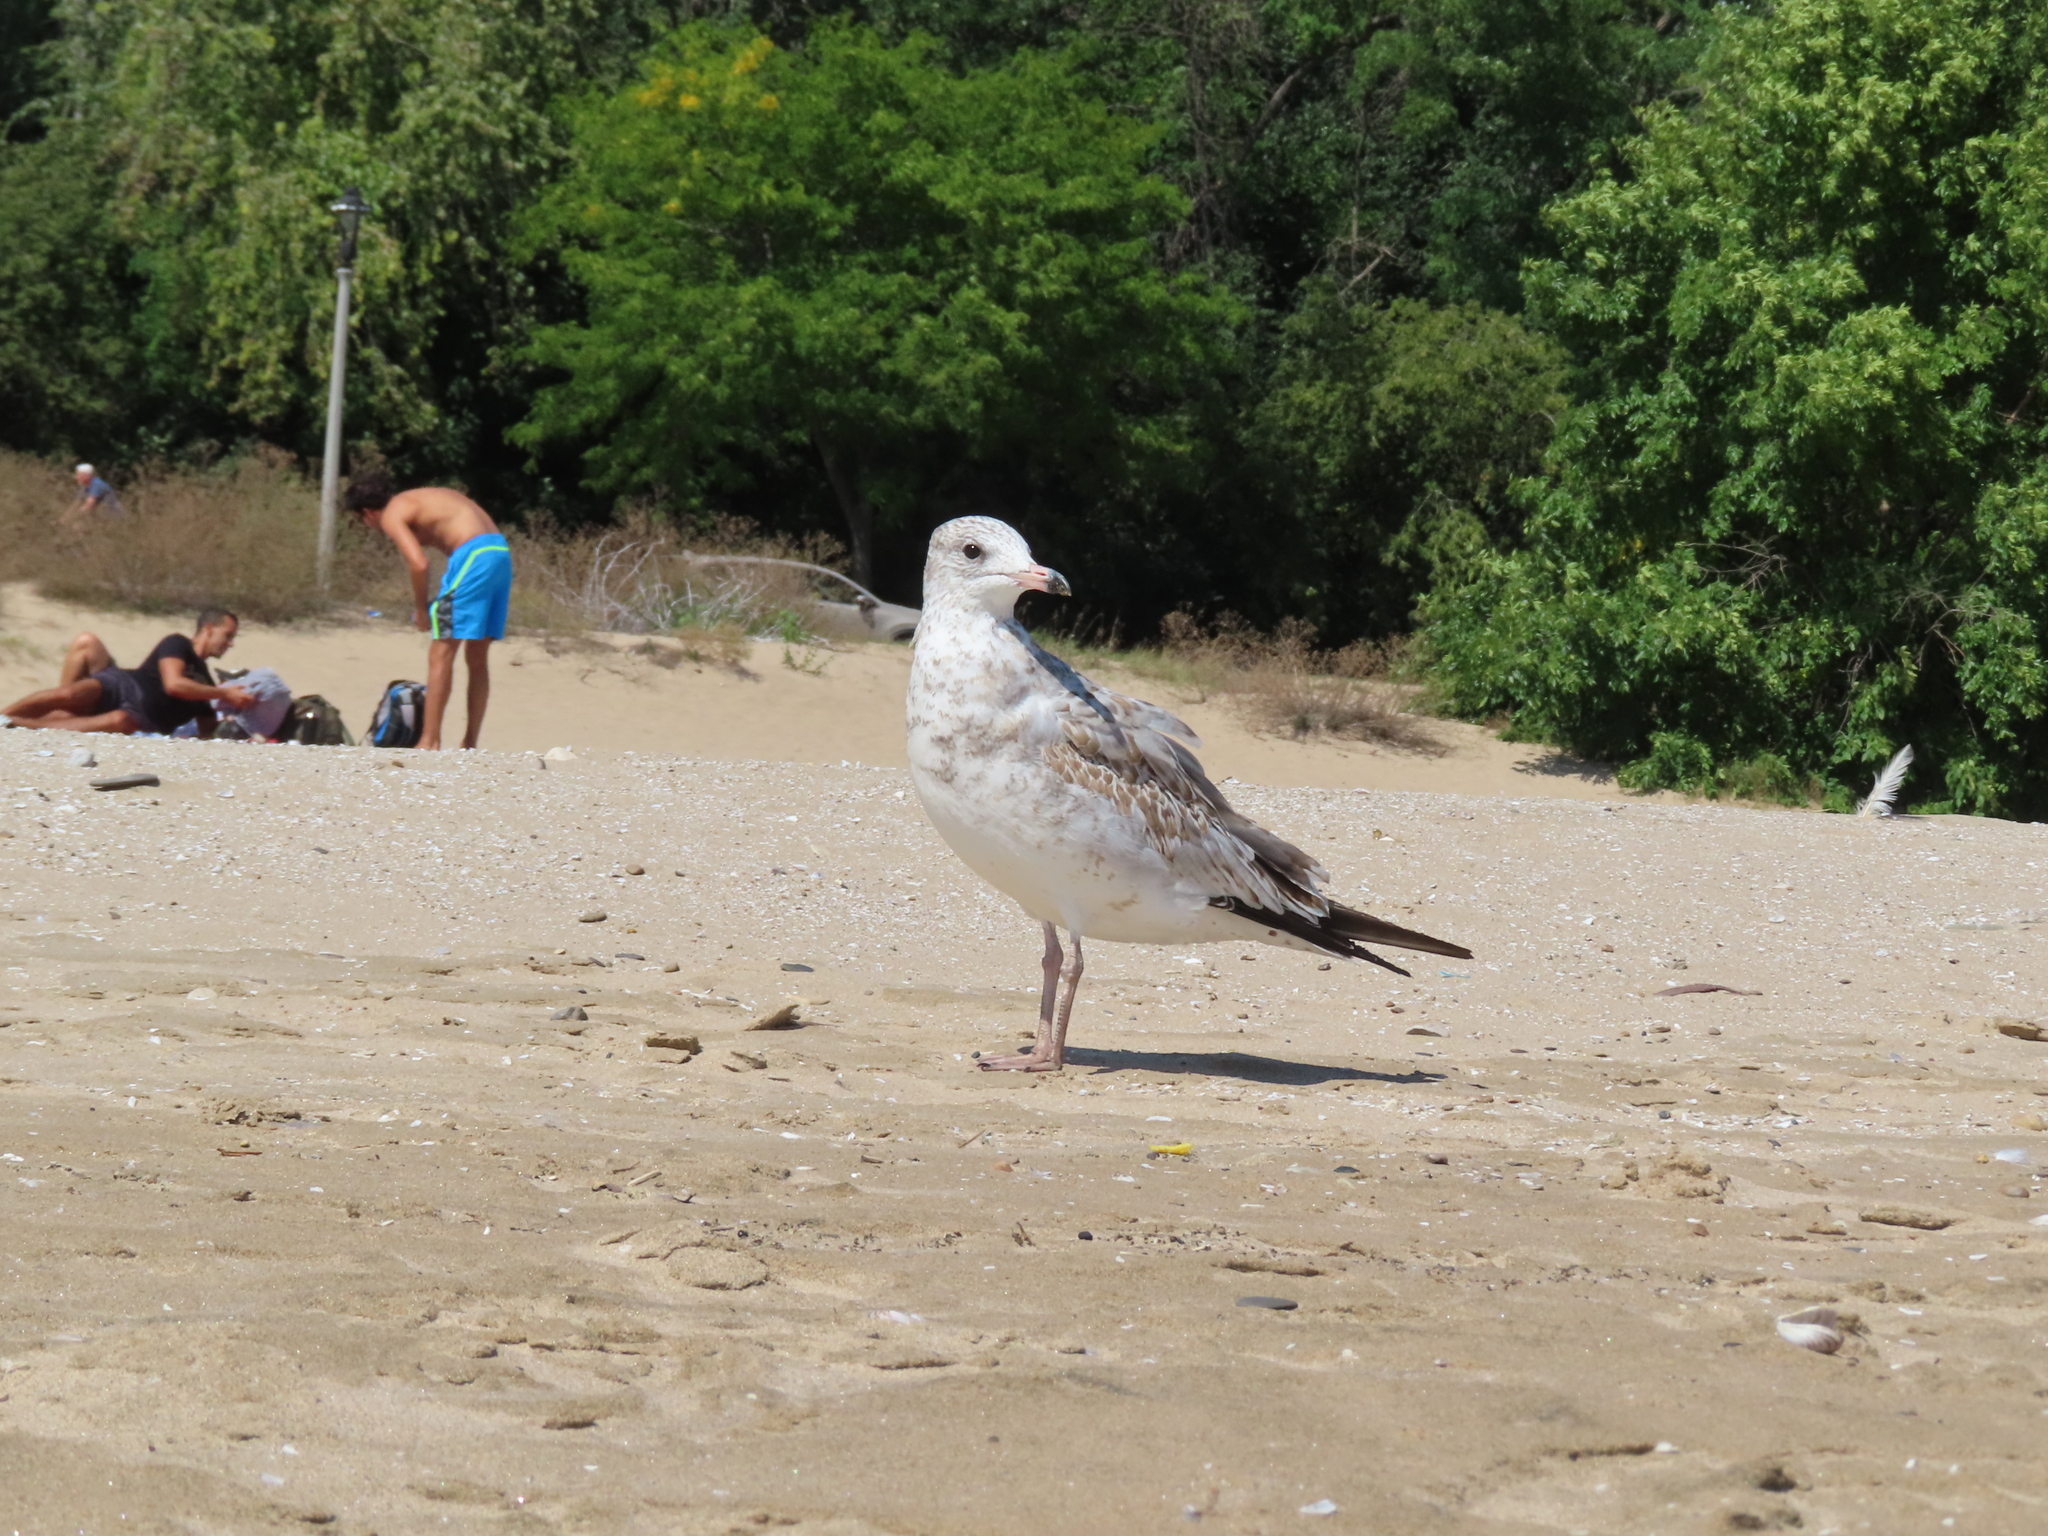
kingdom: Animalia
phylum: Chordata
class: Aves
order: Charadriiformes
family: Laridae
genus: Larus
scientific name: Larus delawarensis
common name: Ring-billed gull
